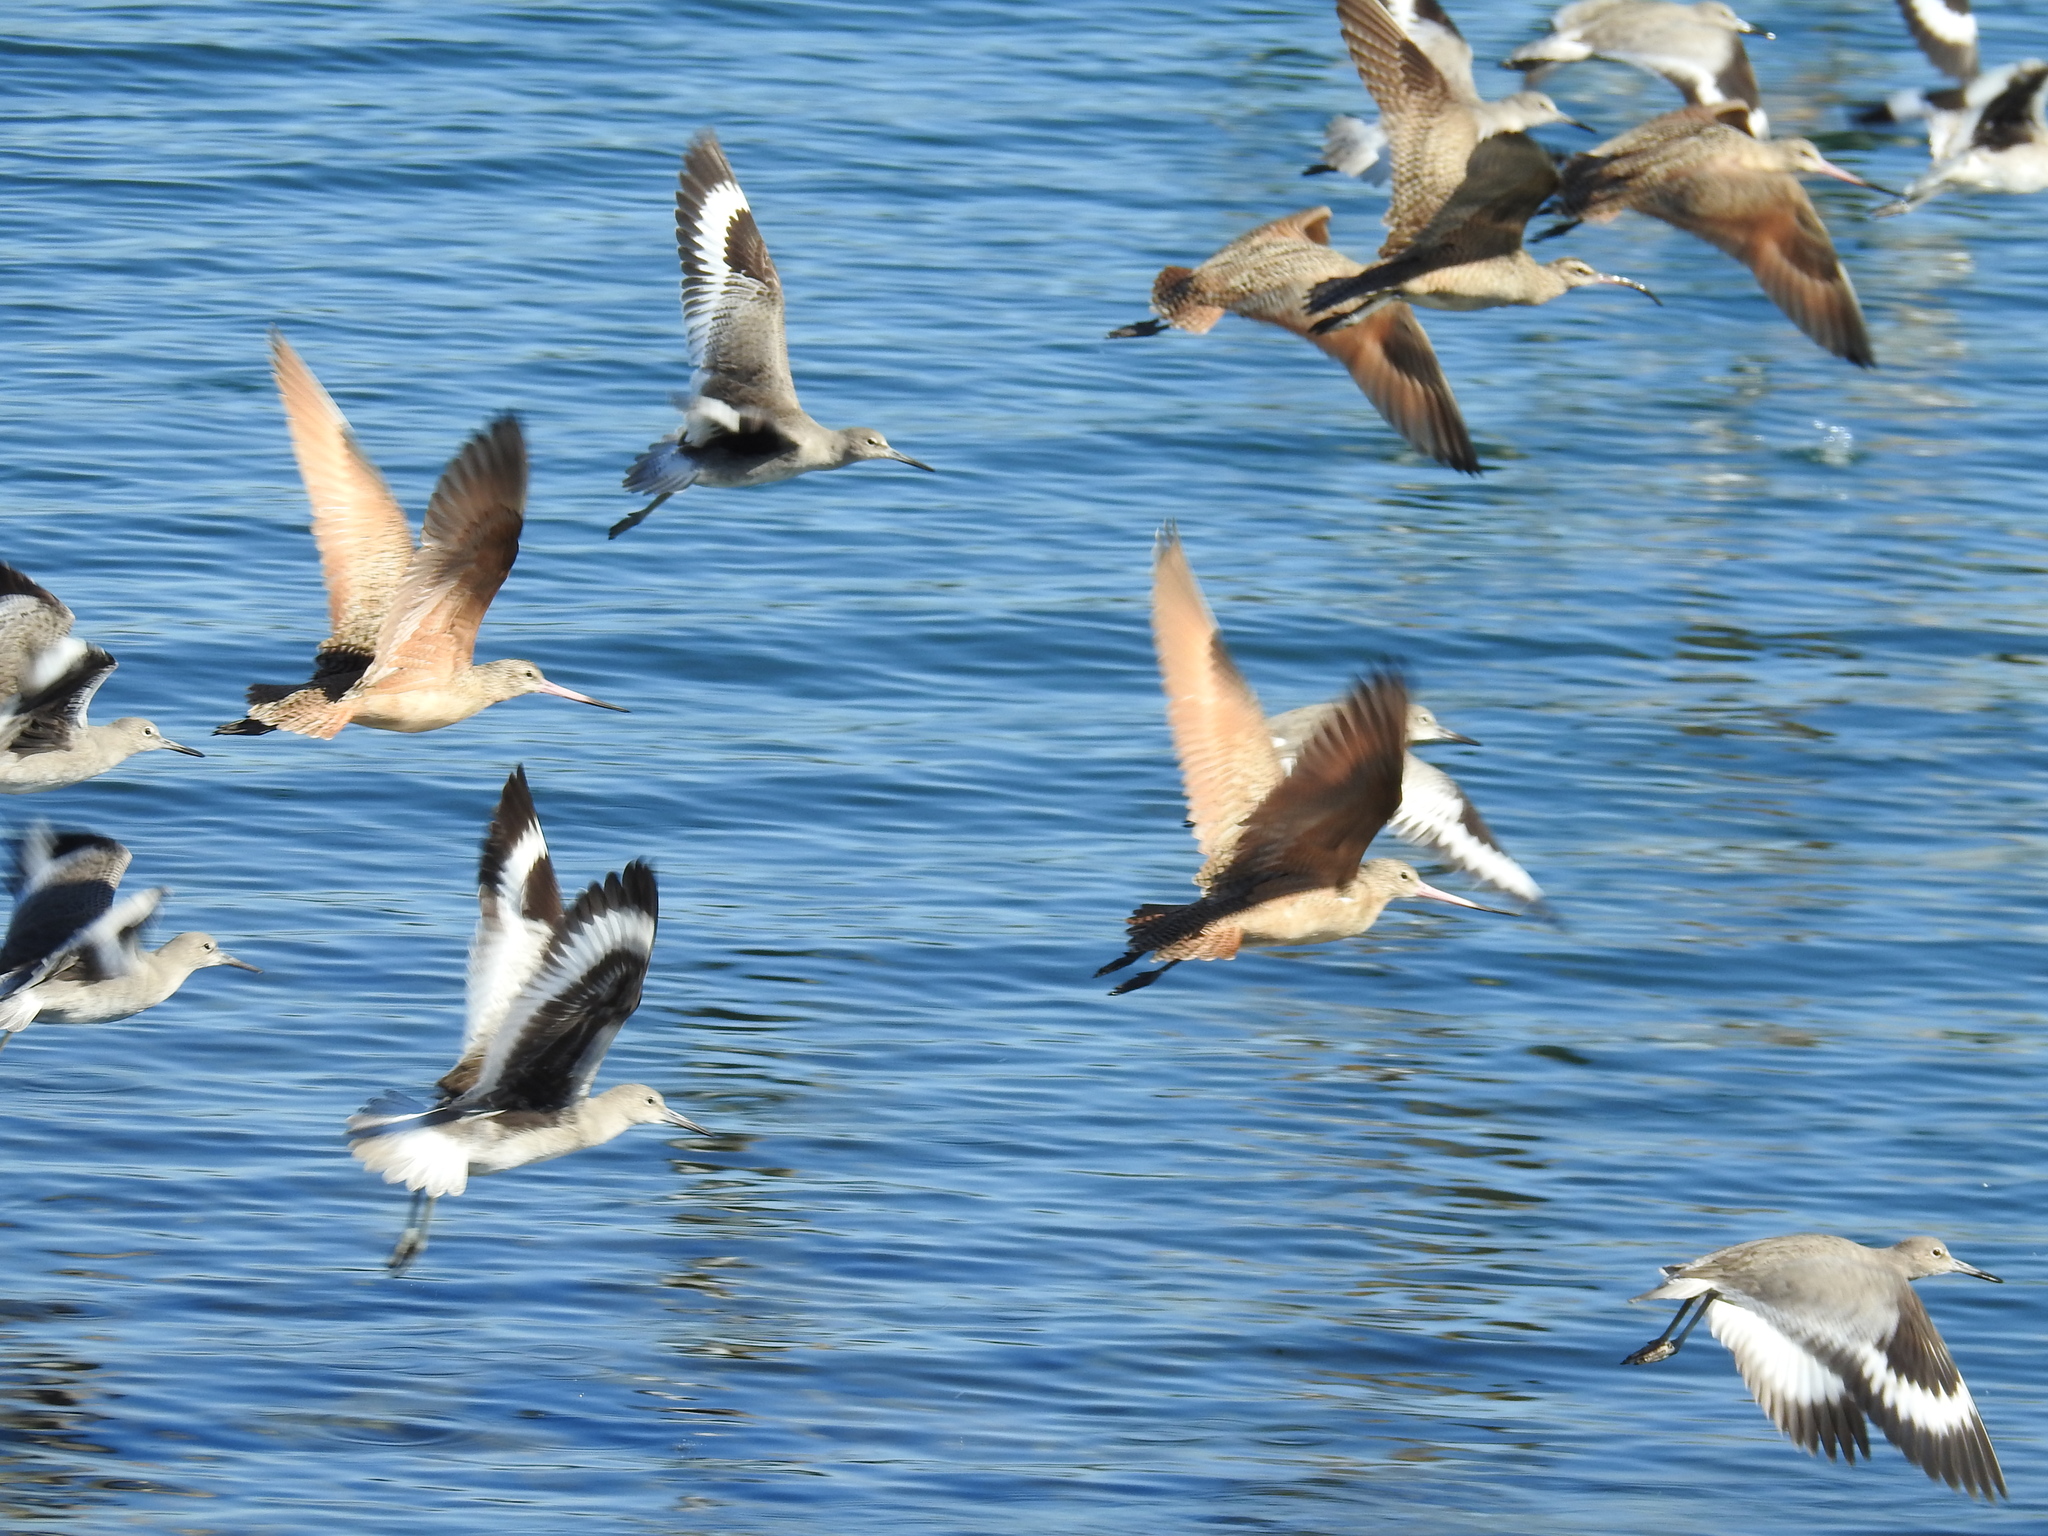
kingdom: Animalia
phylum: Chordata
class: Aves
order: Charadriiformes
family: Scolopacidae
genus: Numenius
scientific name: Numenius phaeopus
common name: Whimbrel
